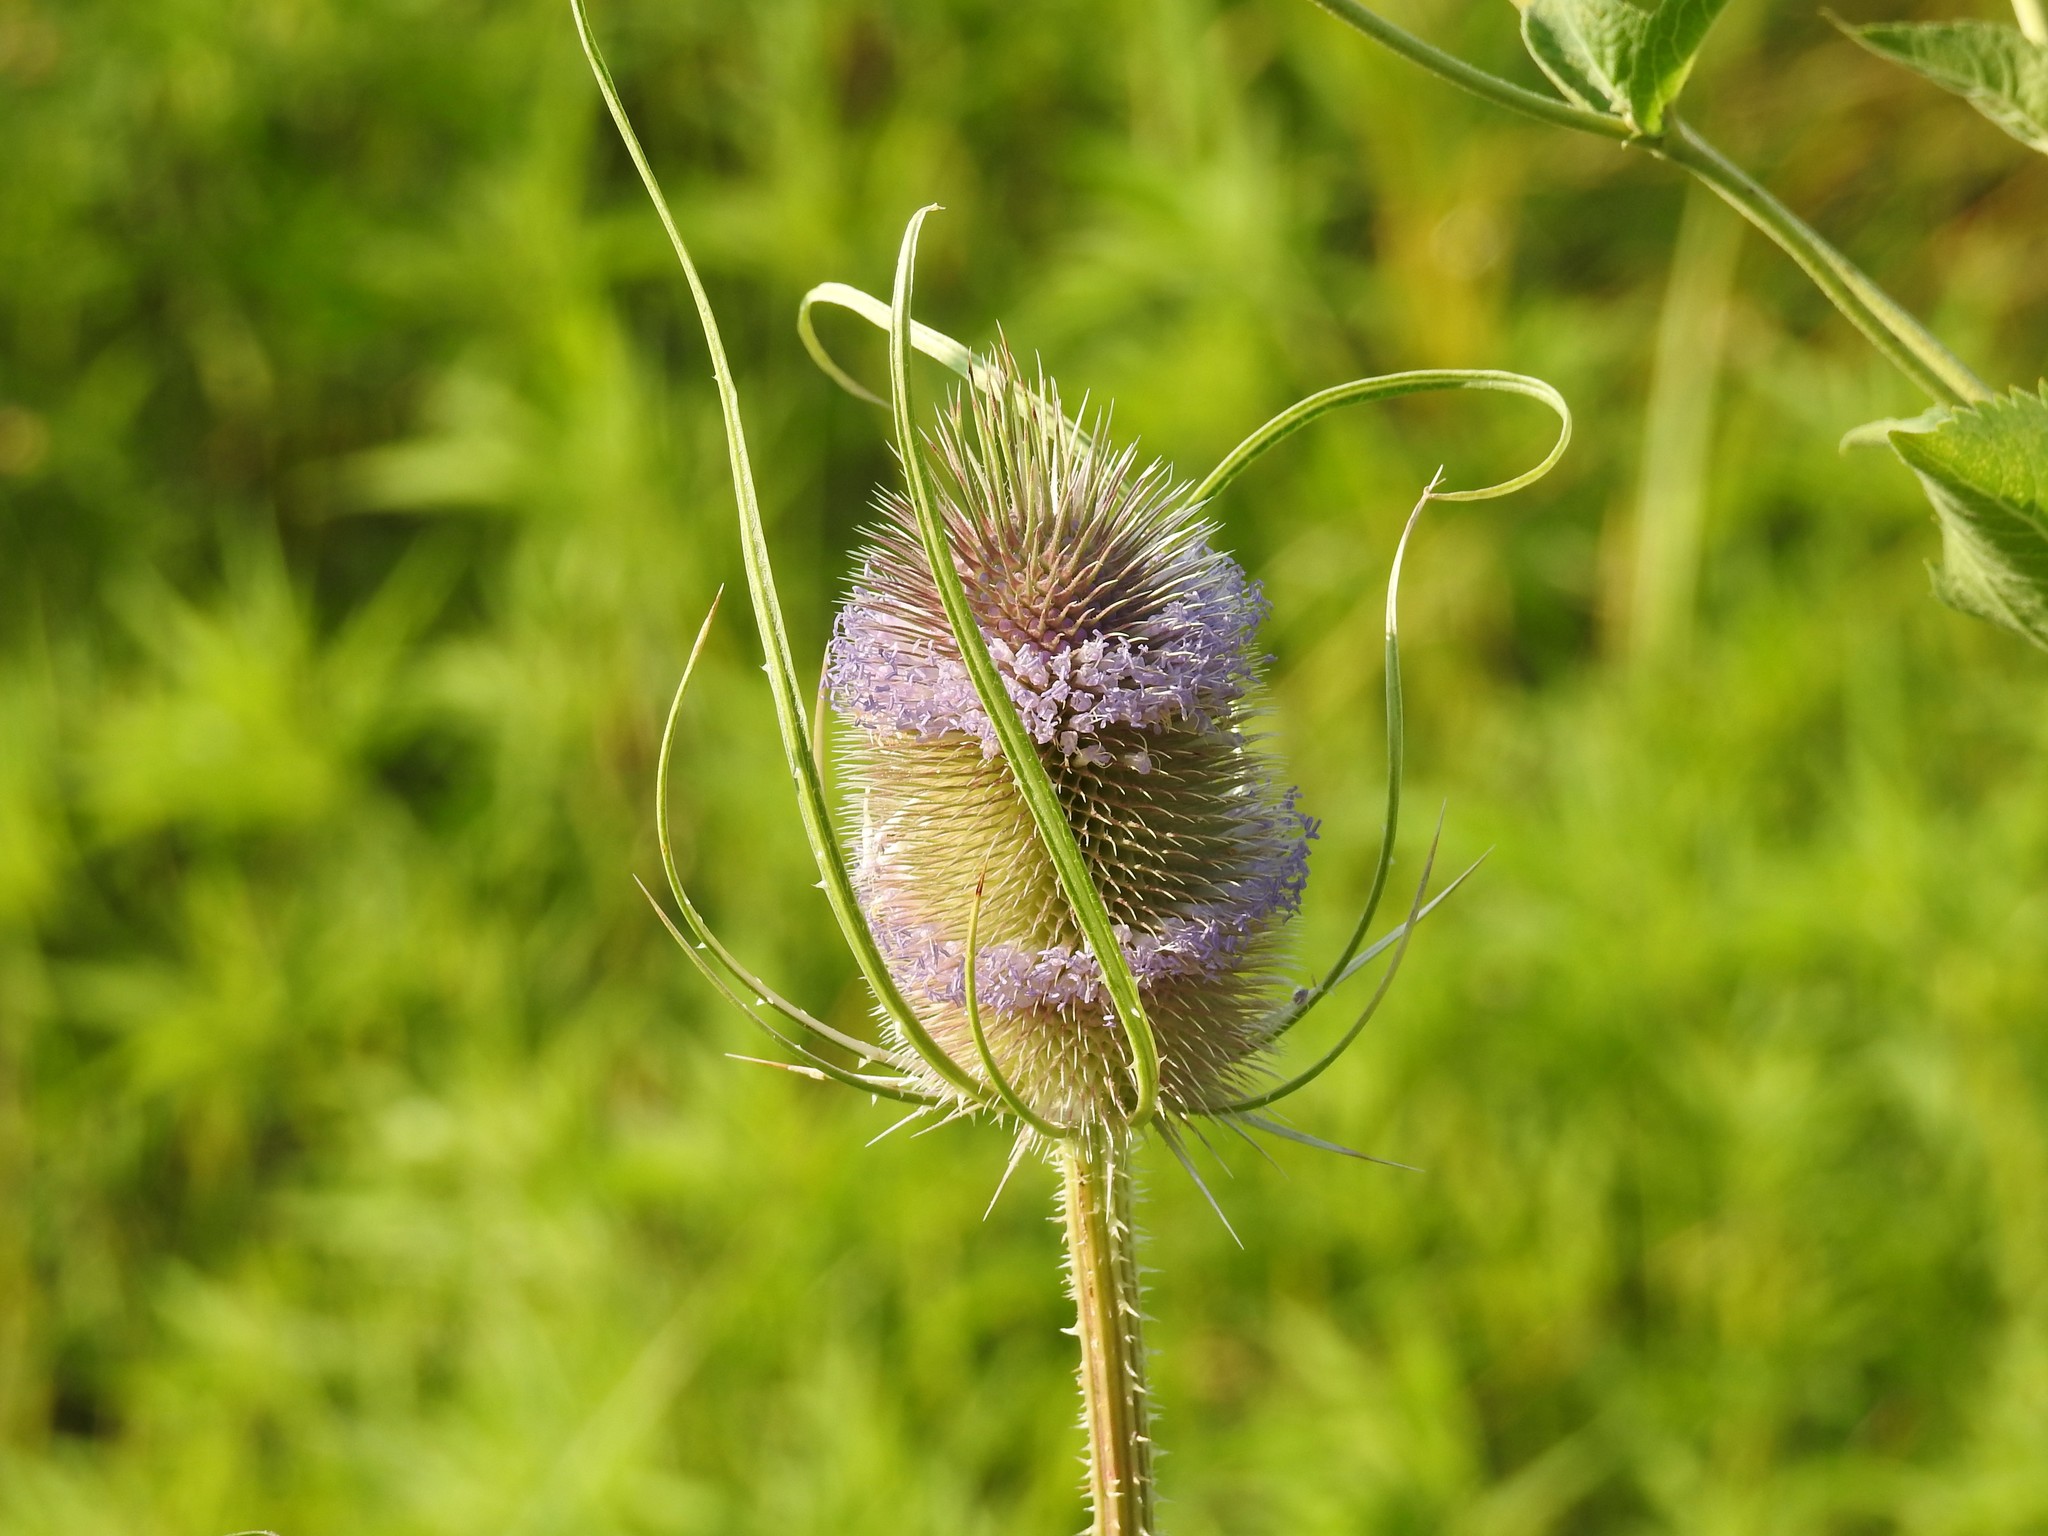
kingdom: Plantae
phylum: Tracheophyta
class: Magnoliopsida
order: Dipsacales
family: Caprifoliaceae
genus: Dipsacus
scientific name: Dipsacus fullonum
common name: Teasel
